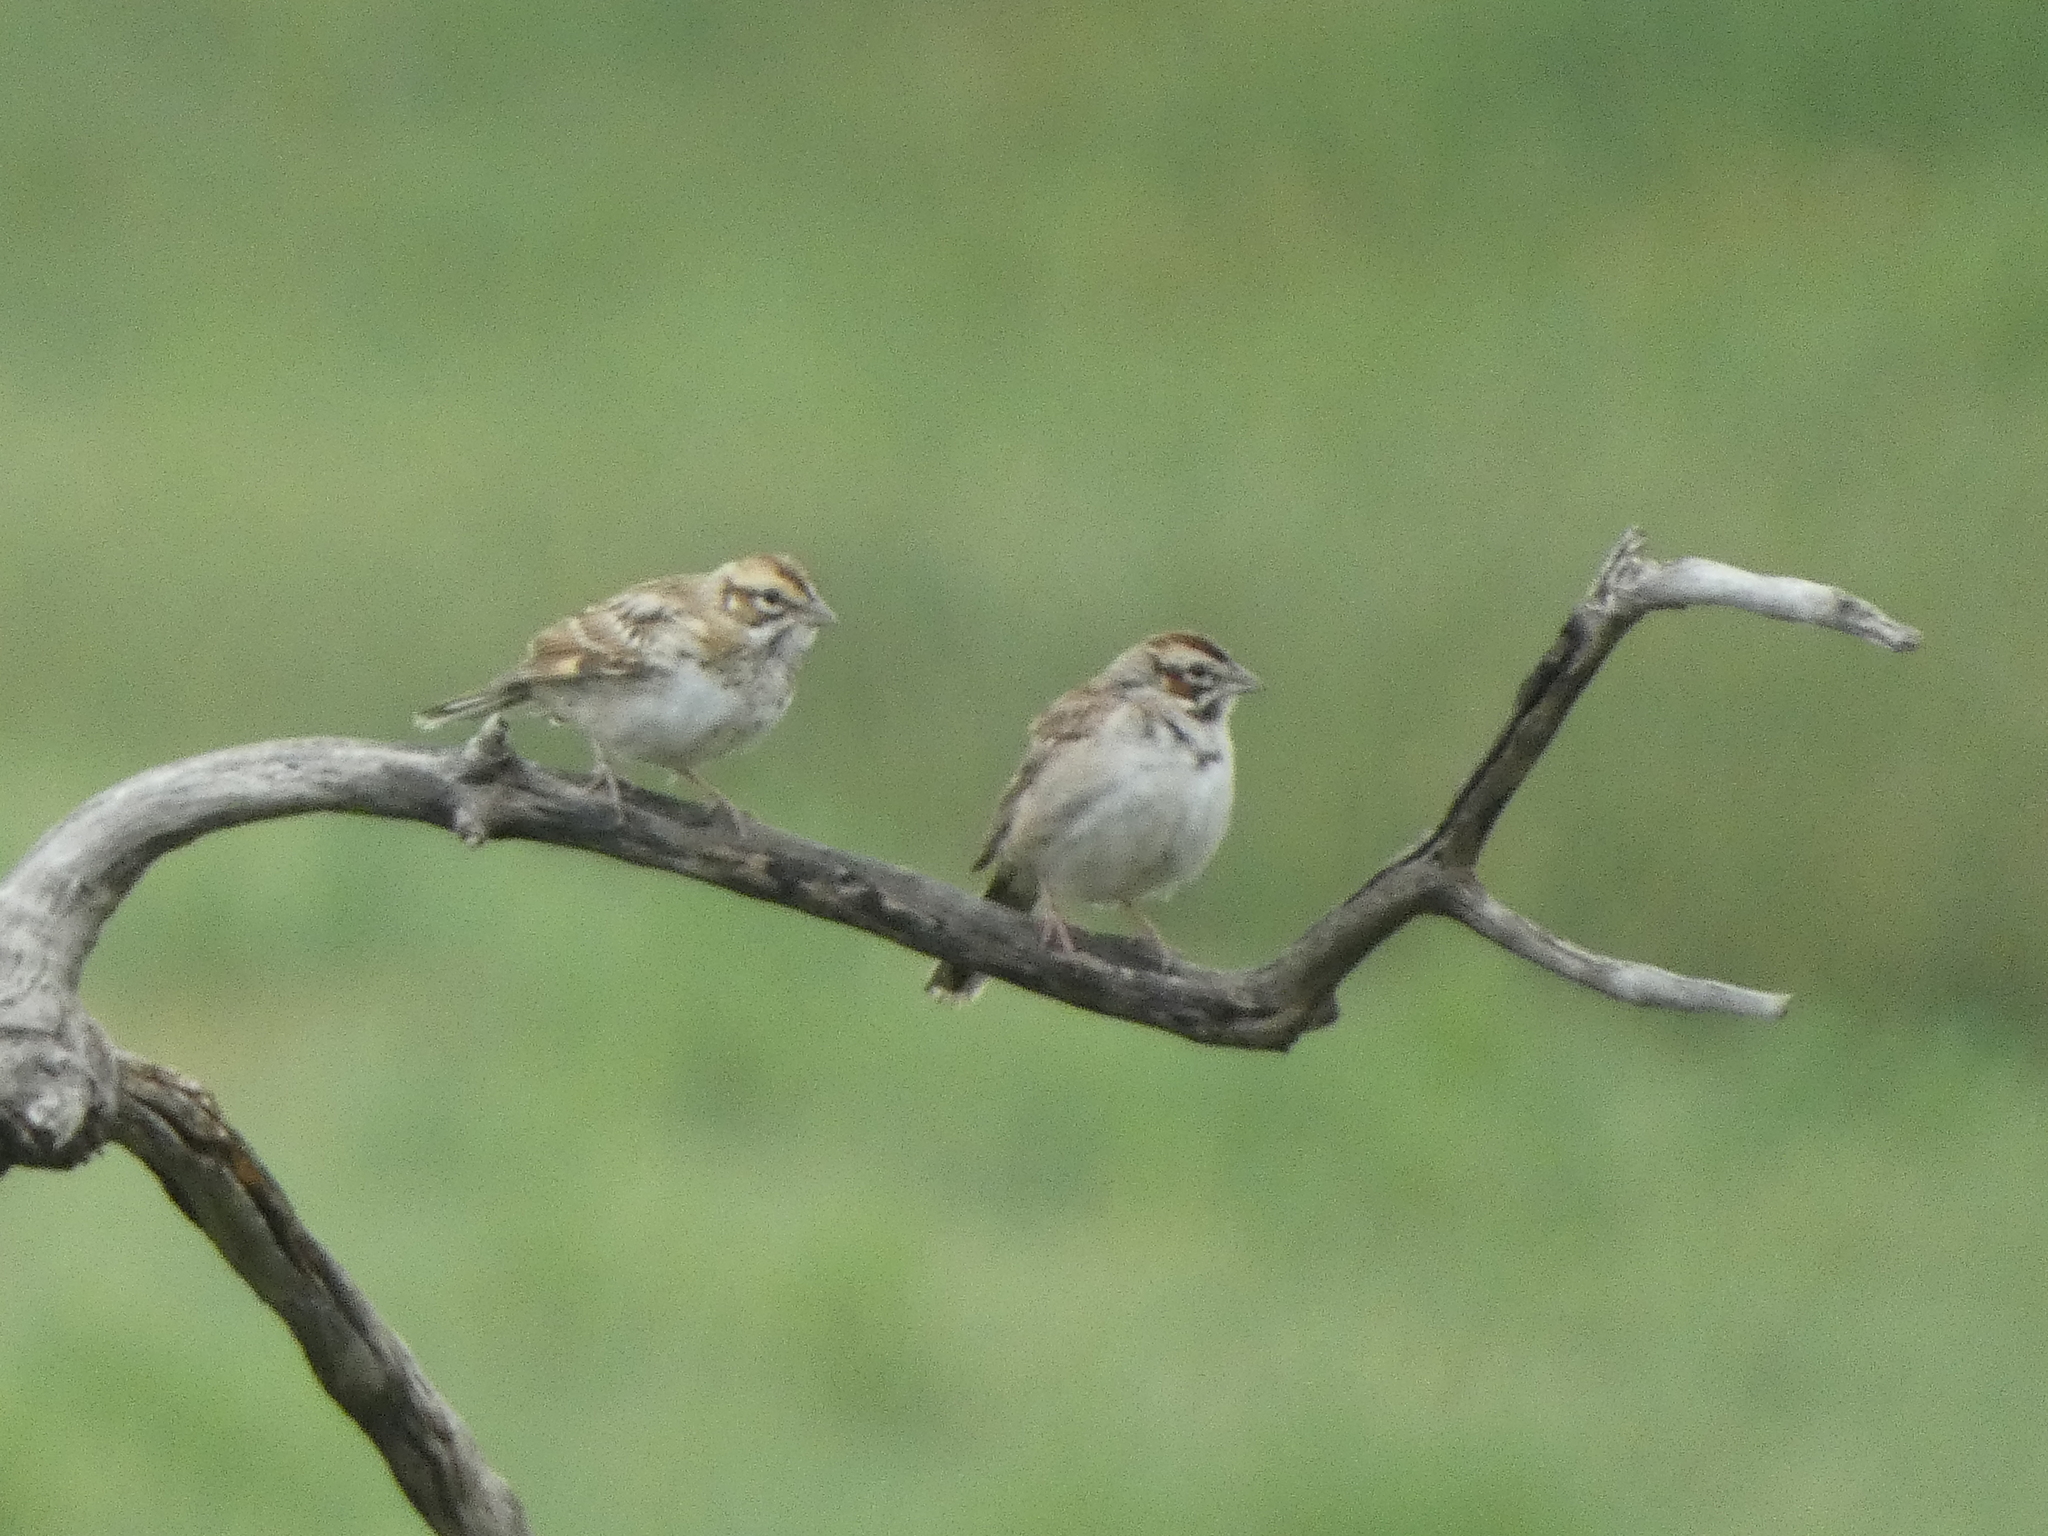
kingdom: Animalia
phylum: Chordata
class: Aves
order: Passeriformes
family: Passerellidae
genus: Chondestes
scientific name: Chondestes grammacus
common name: Lark sparrow
